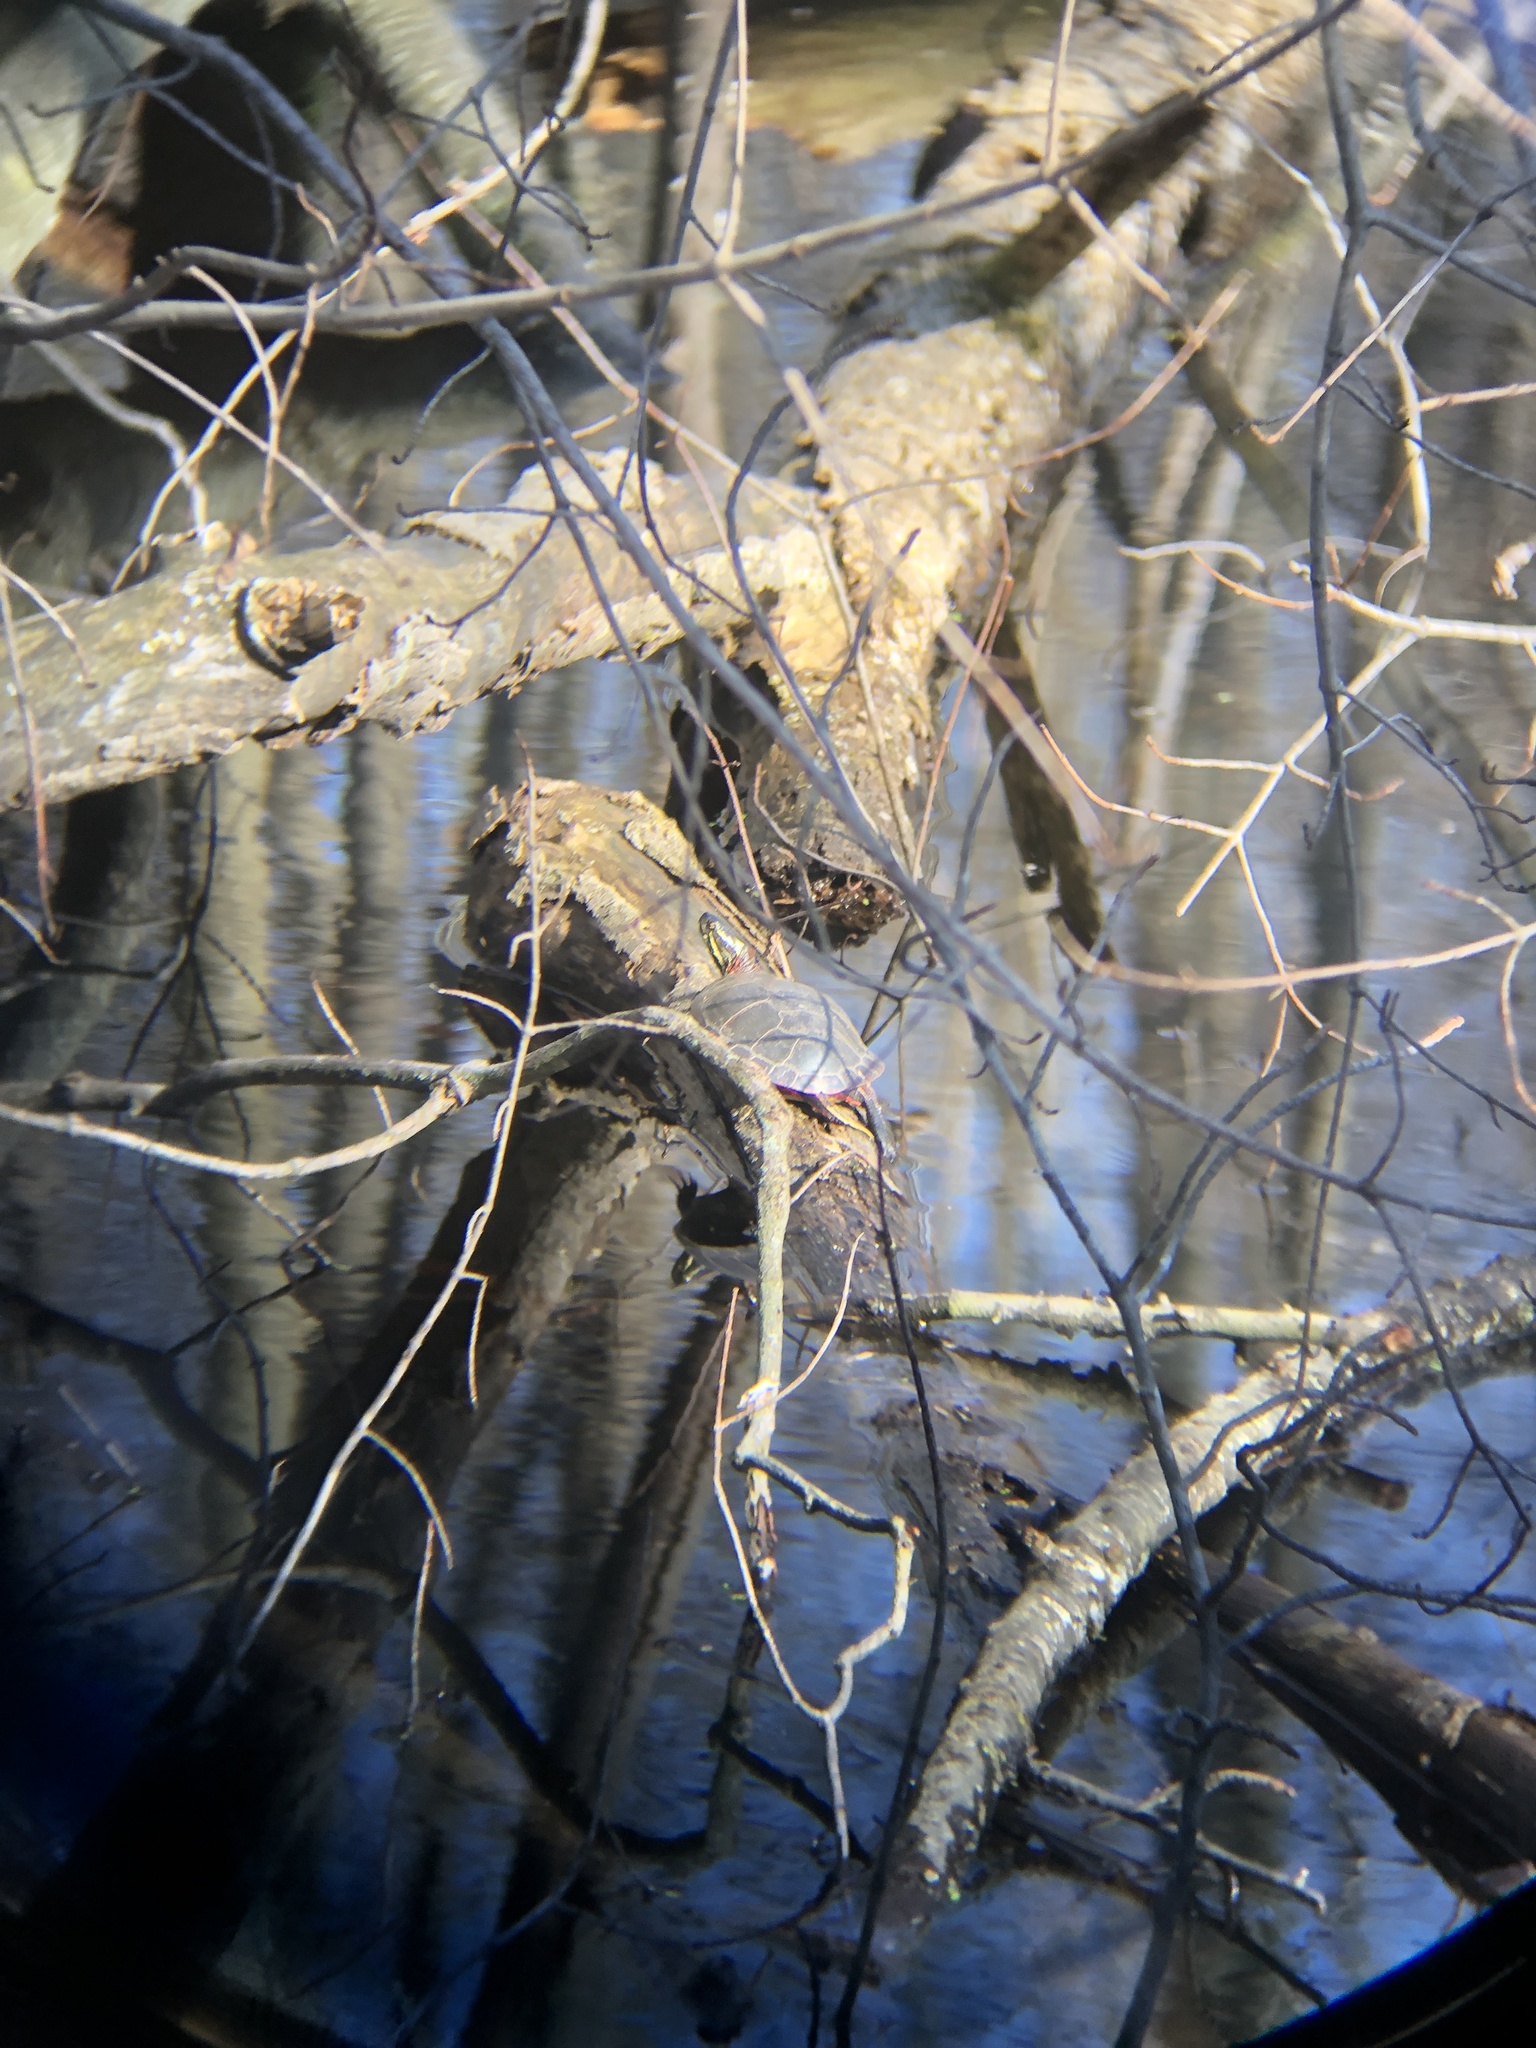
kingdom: Animalia
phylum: Chordata
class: Testudines
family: Emydidae
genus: Chrysemys
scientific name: Chrysemys picta
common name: Painted turtle
